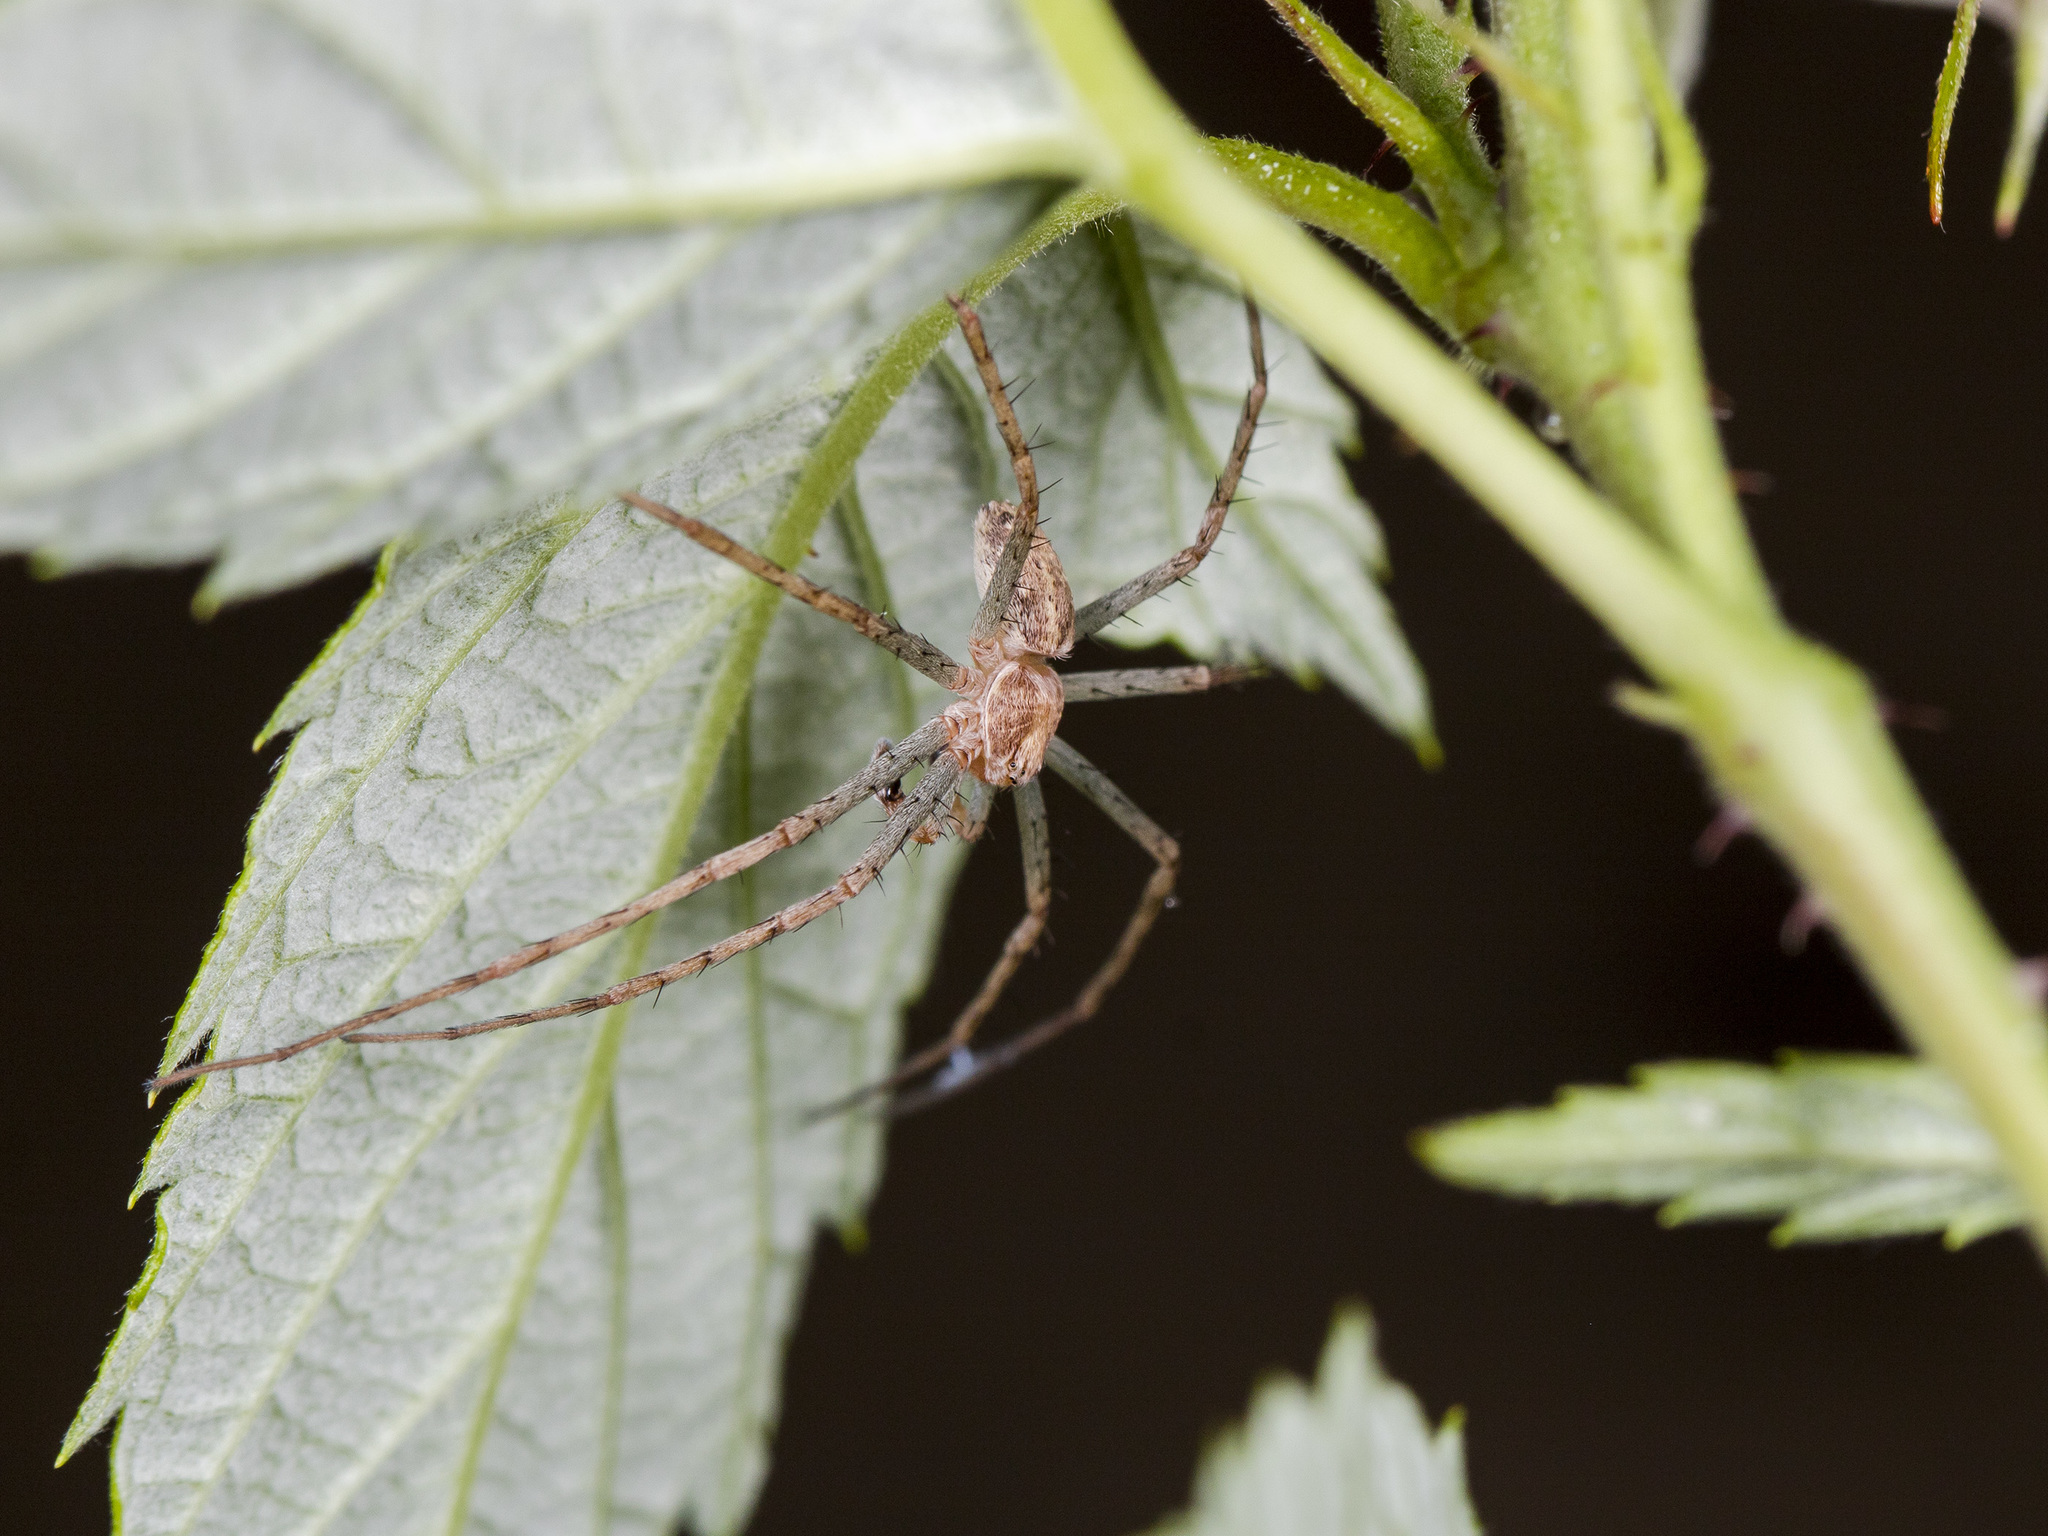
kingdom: Animalia
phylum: Arthropoda
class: Arachnida
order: Araneae
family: Philodromidae
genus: Philodromus
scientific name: Philodromus longipalpis
